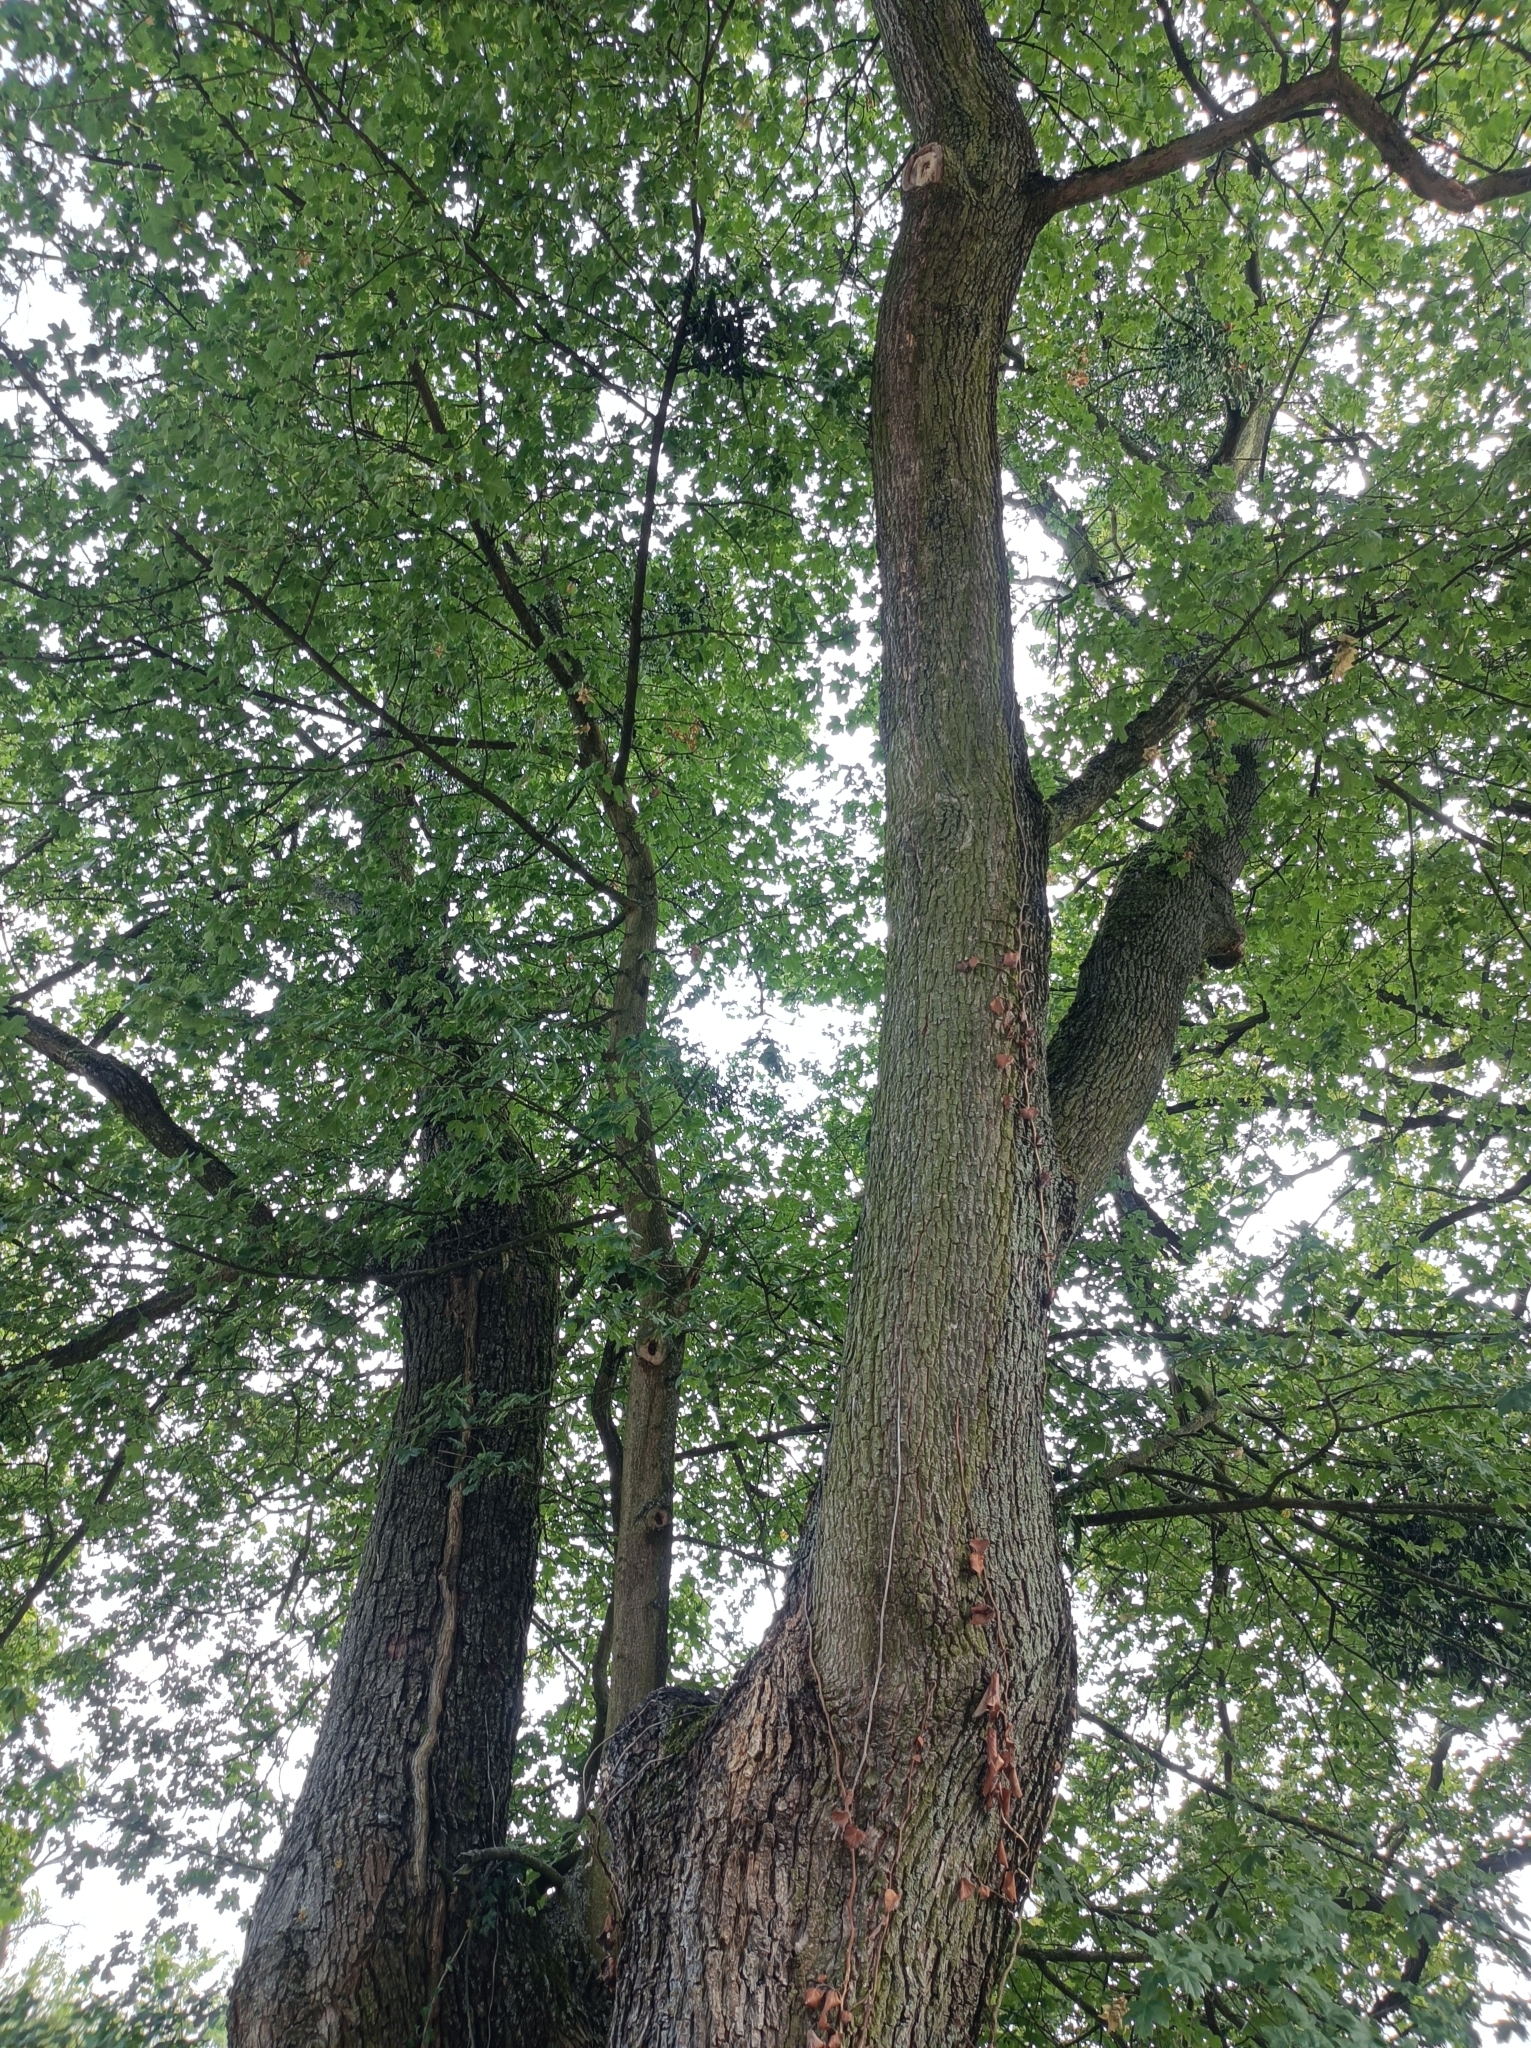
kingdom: Animalia
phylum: Arthropoda
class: Insecta
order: Hymenoptera
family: Formicidae
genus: Lasius
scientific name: Lasius fuliginosus
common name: Jet ant
